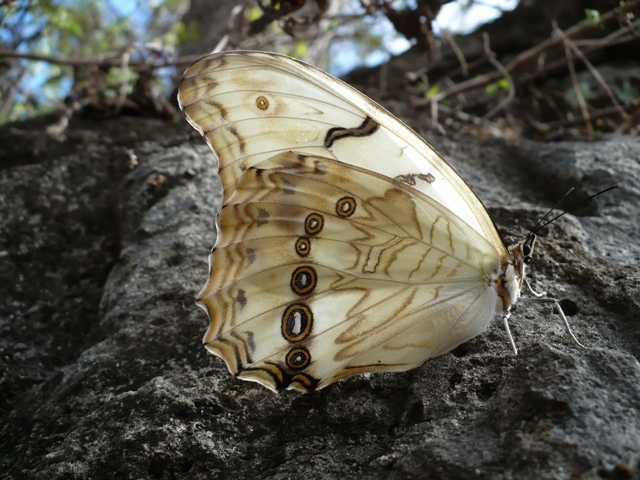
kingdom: Animalia
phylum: Arthropoda
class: Insecta
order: Lepidoptera
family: Nymphalidae
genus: Morpho
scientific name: Morpho polyphemus
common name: White morpho
